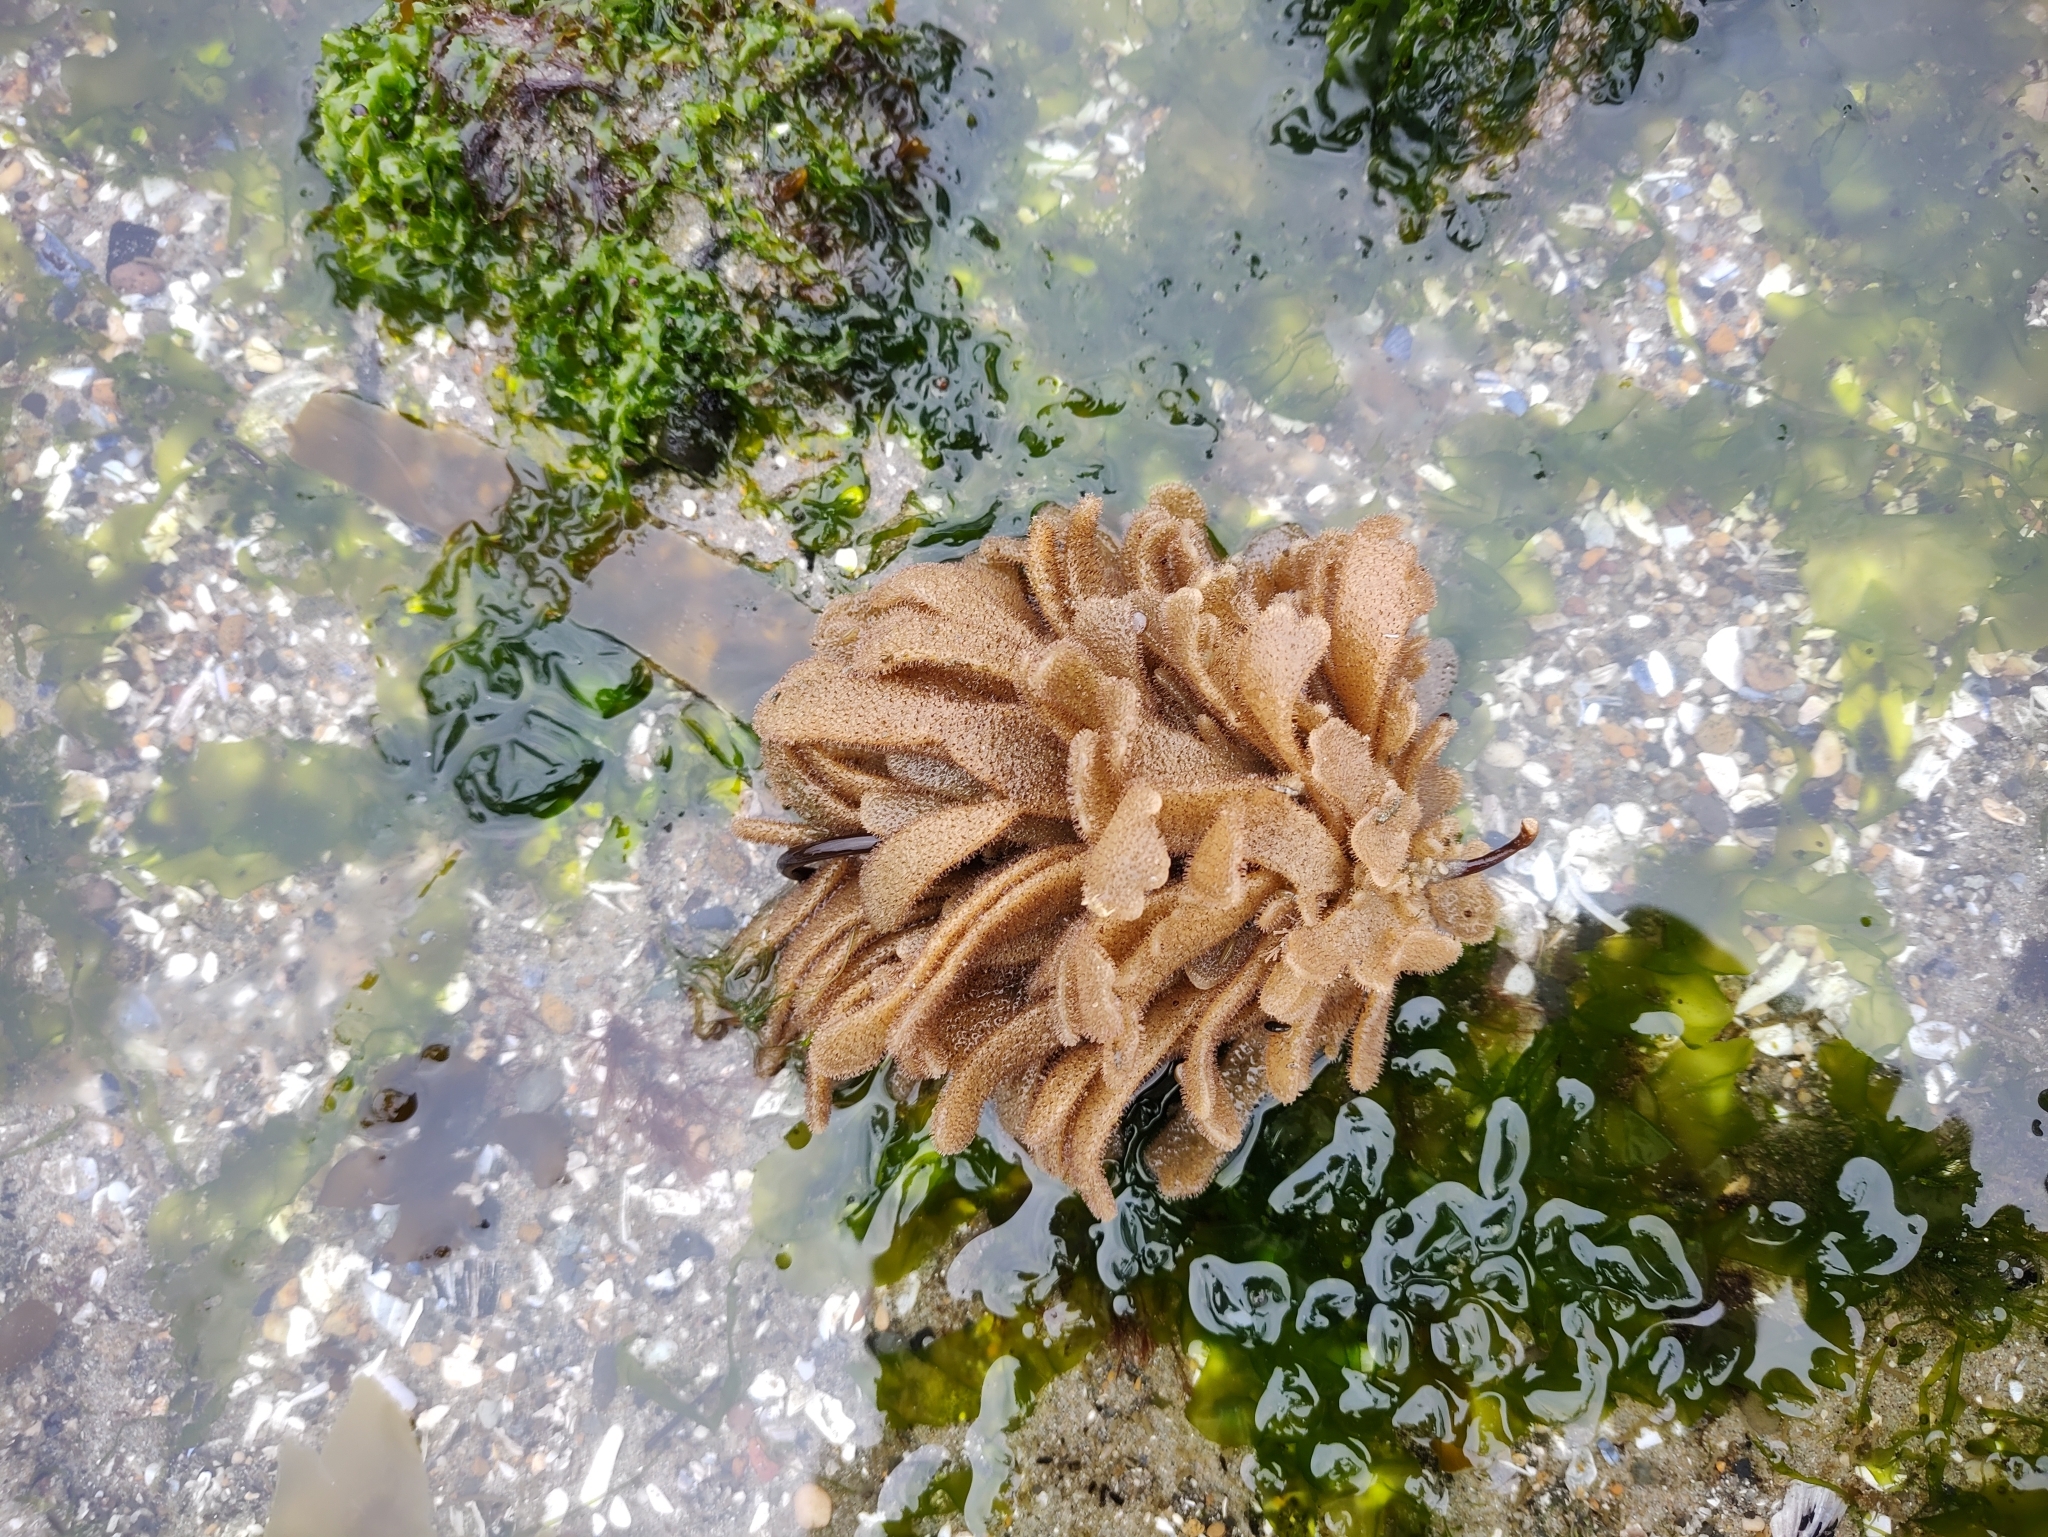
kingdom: Animalia
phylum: Bryozoa
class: Gymnolaemata
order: Ctenostomatida
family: Flustrellidridae
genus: Flustrellidra
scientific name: Flustrellidra corniculata
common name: Spiny leather bryozoan
